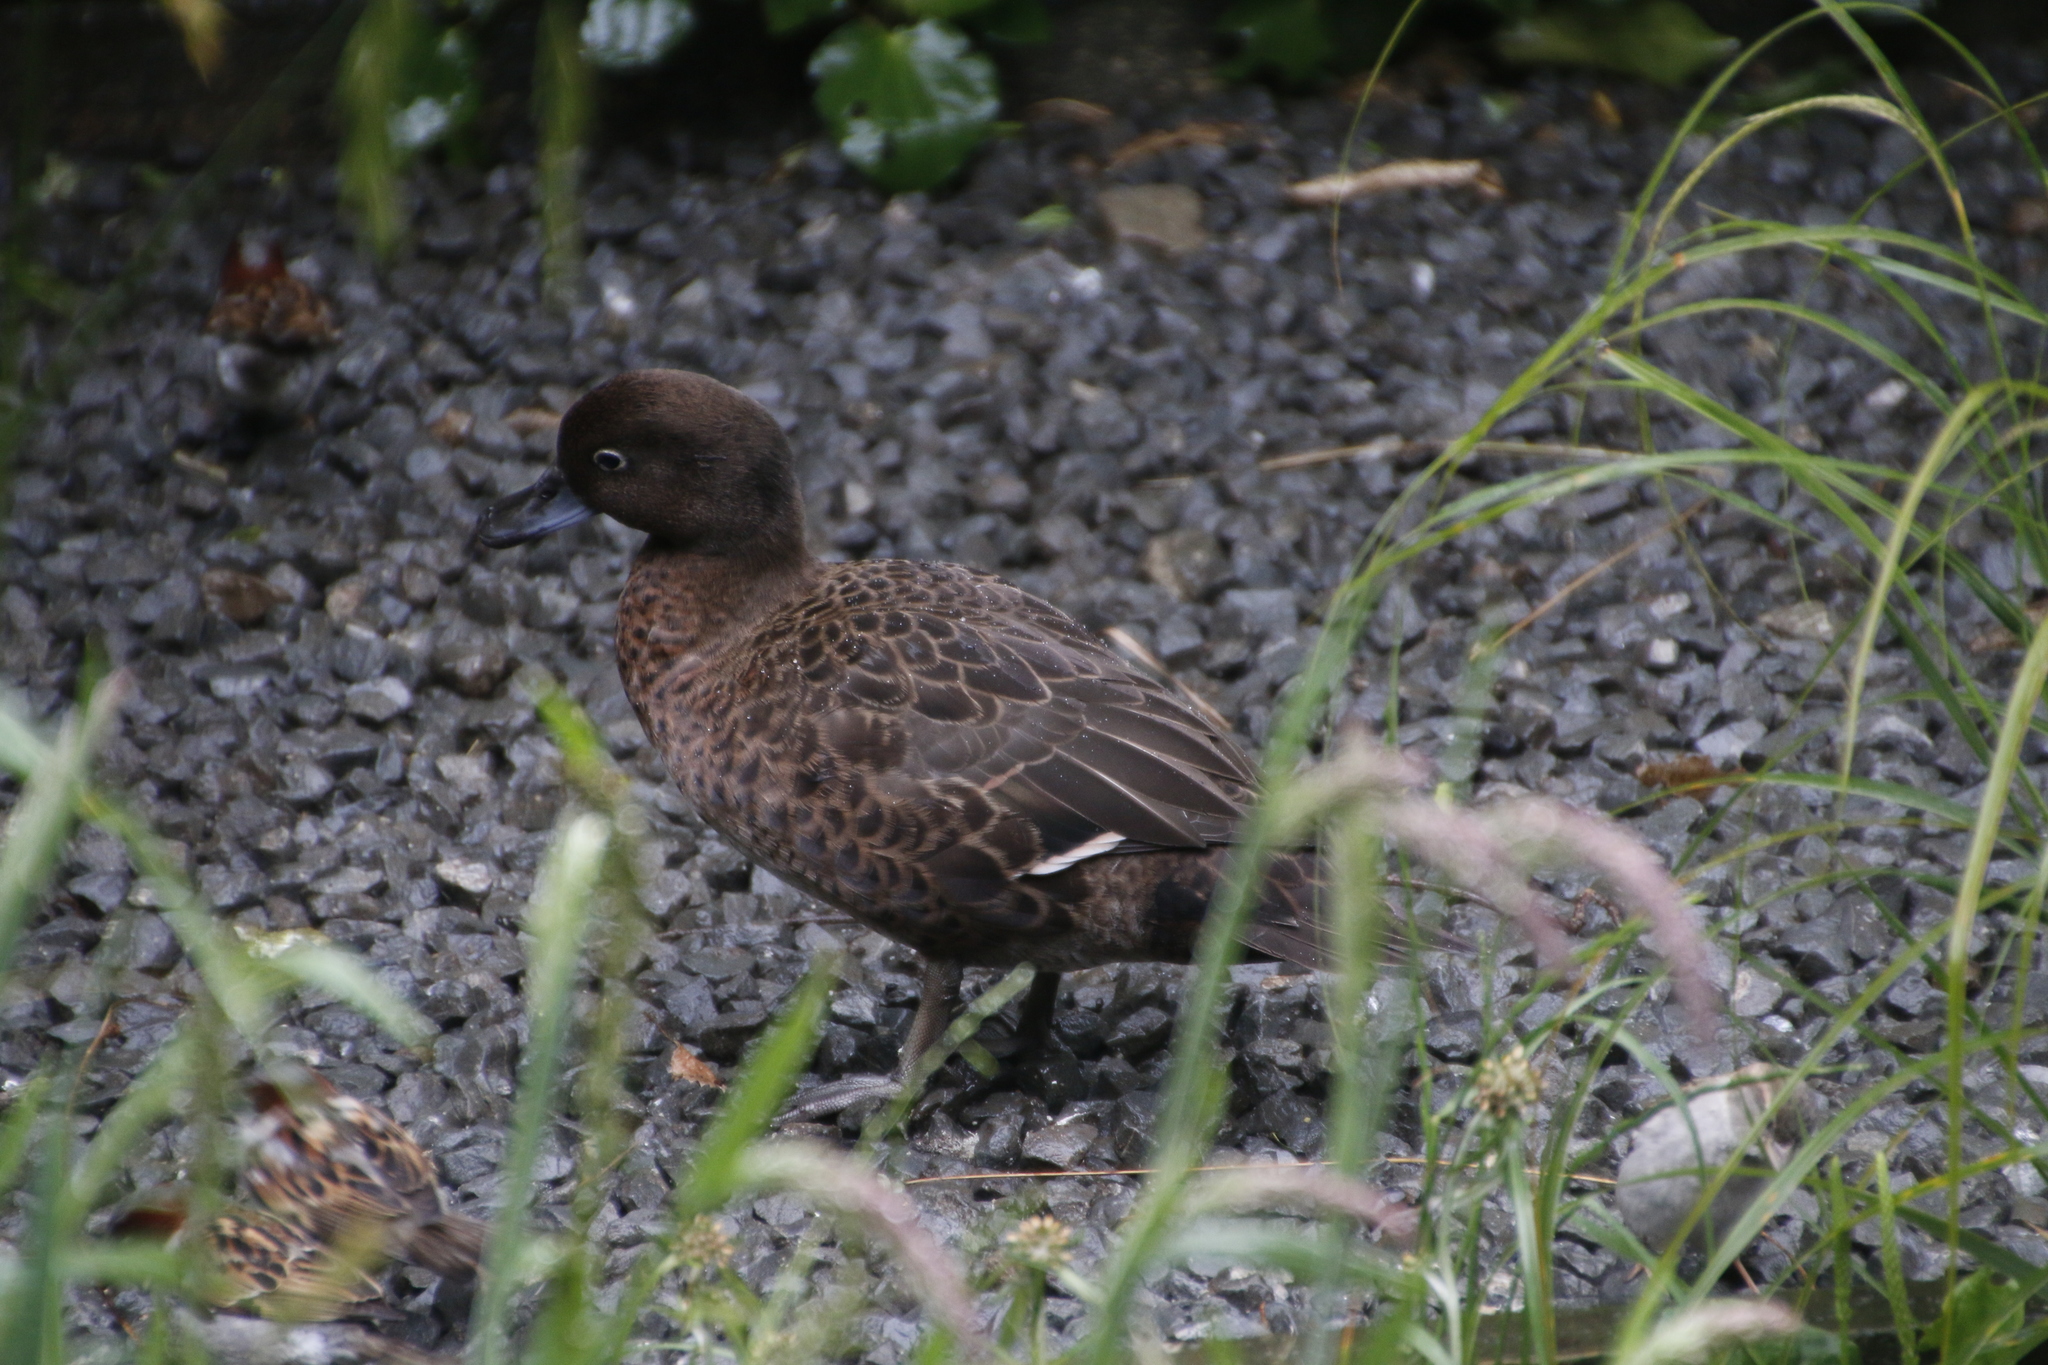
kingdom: Animalia
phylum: Chordata
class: Aves
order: Anseriformes
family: Anatidae
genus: Anas
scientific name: Anas chlorotis
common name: Brown teal
